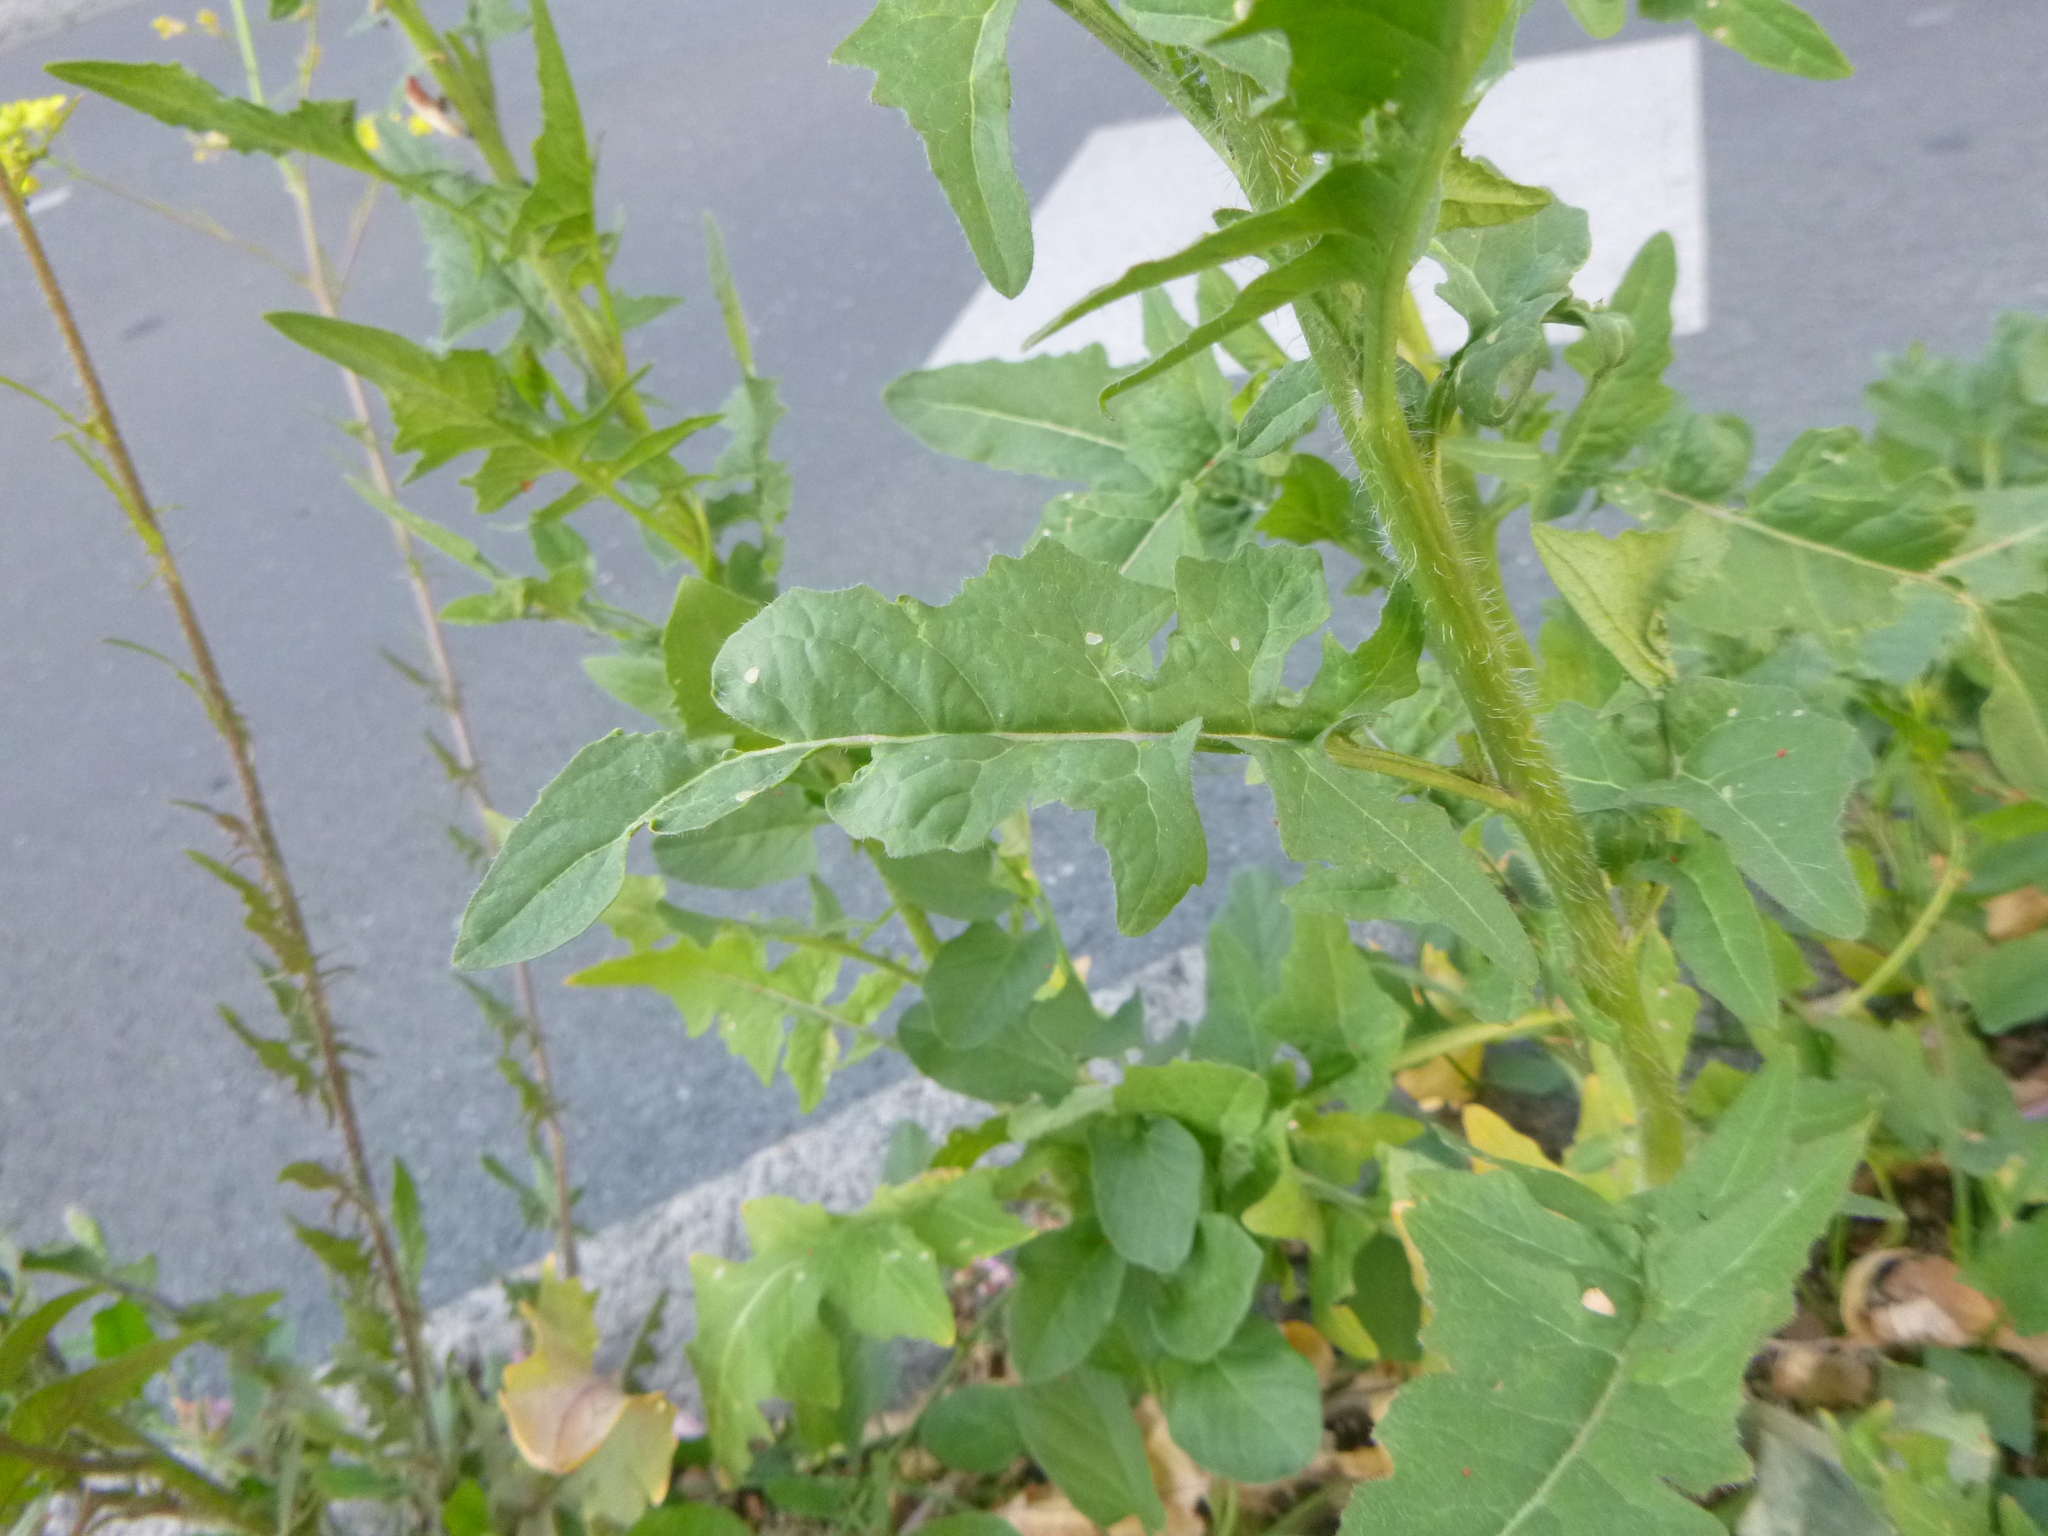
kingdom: Plantae
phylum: Tracheophyta
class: Magnoliopsida
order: Brassicales
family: Brassicaceae
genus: Sisymbrium
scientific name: Sisymbrium volgense
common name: Russian mustard
